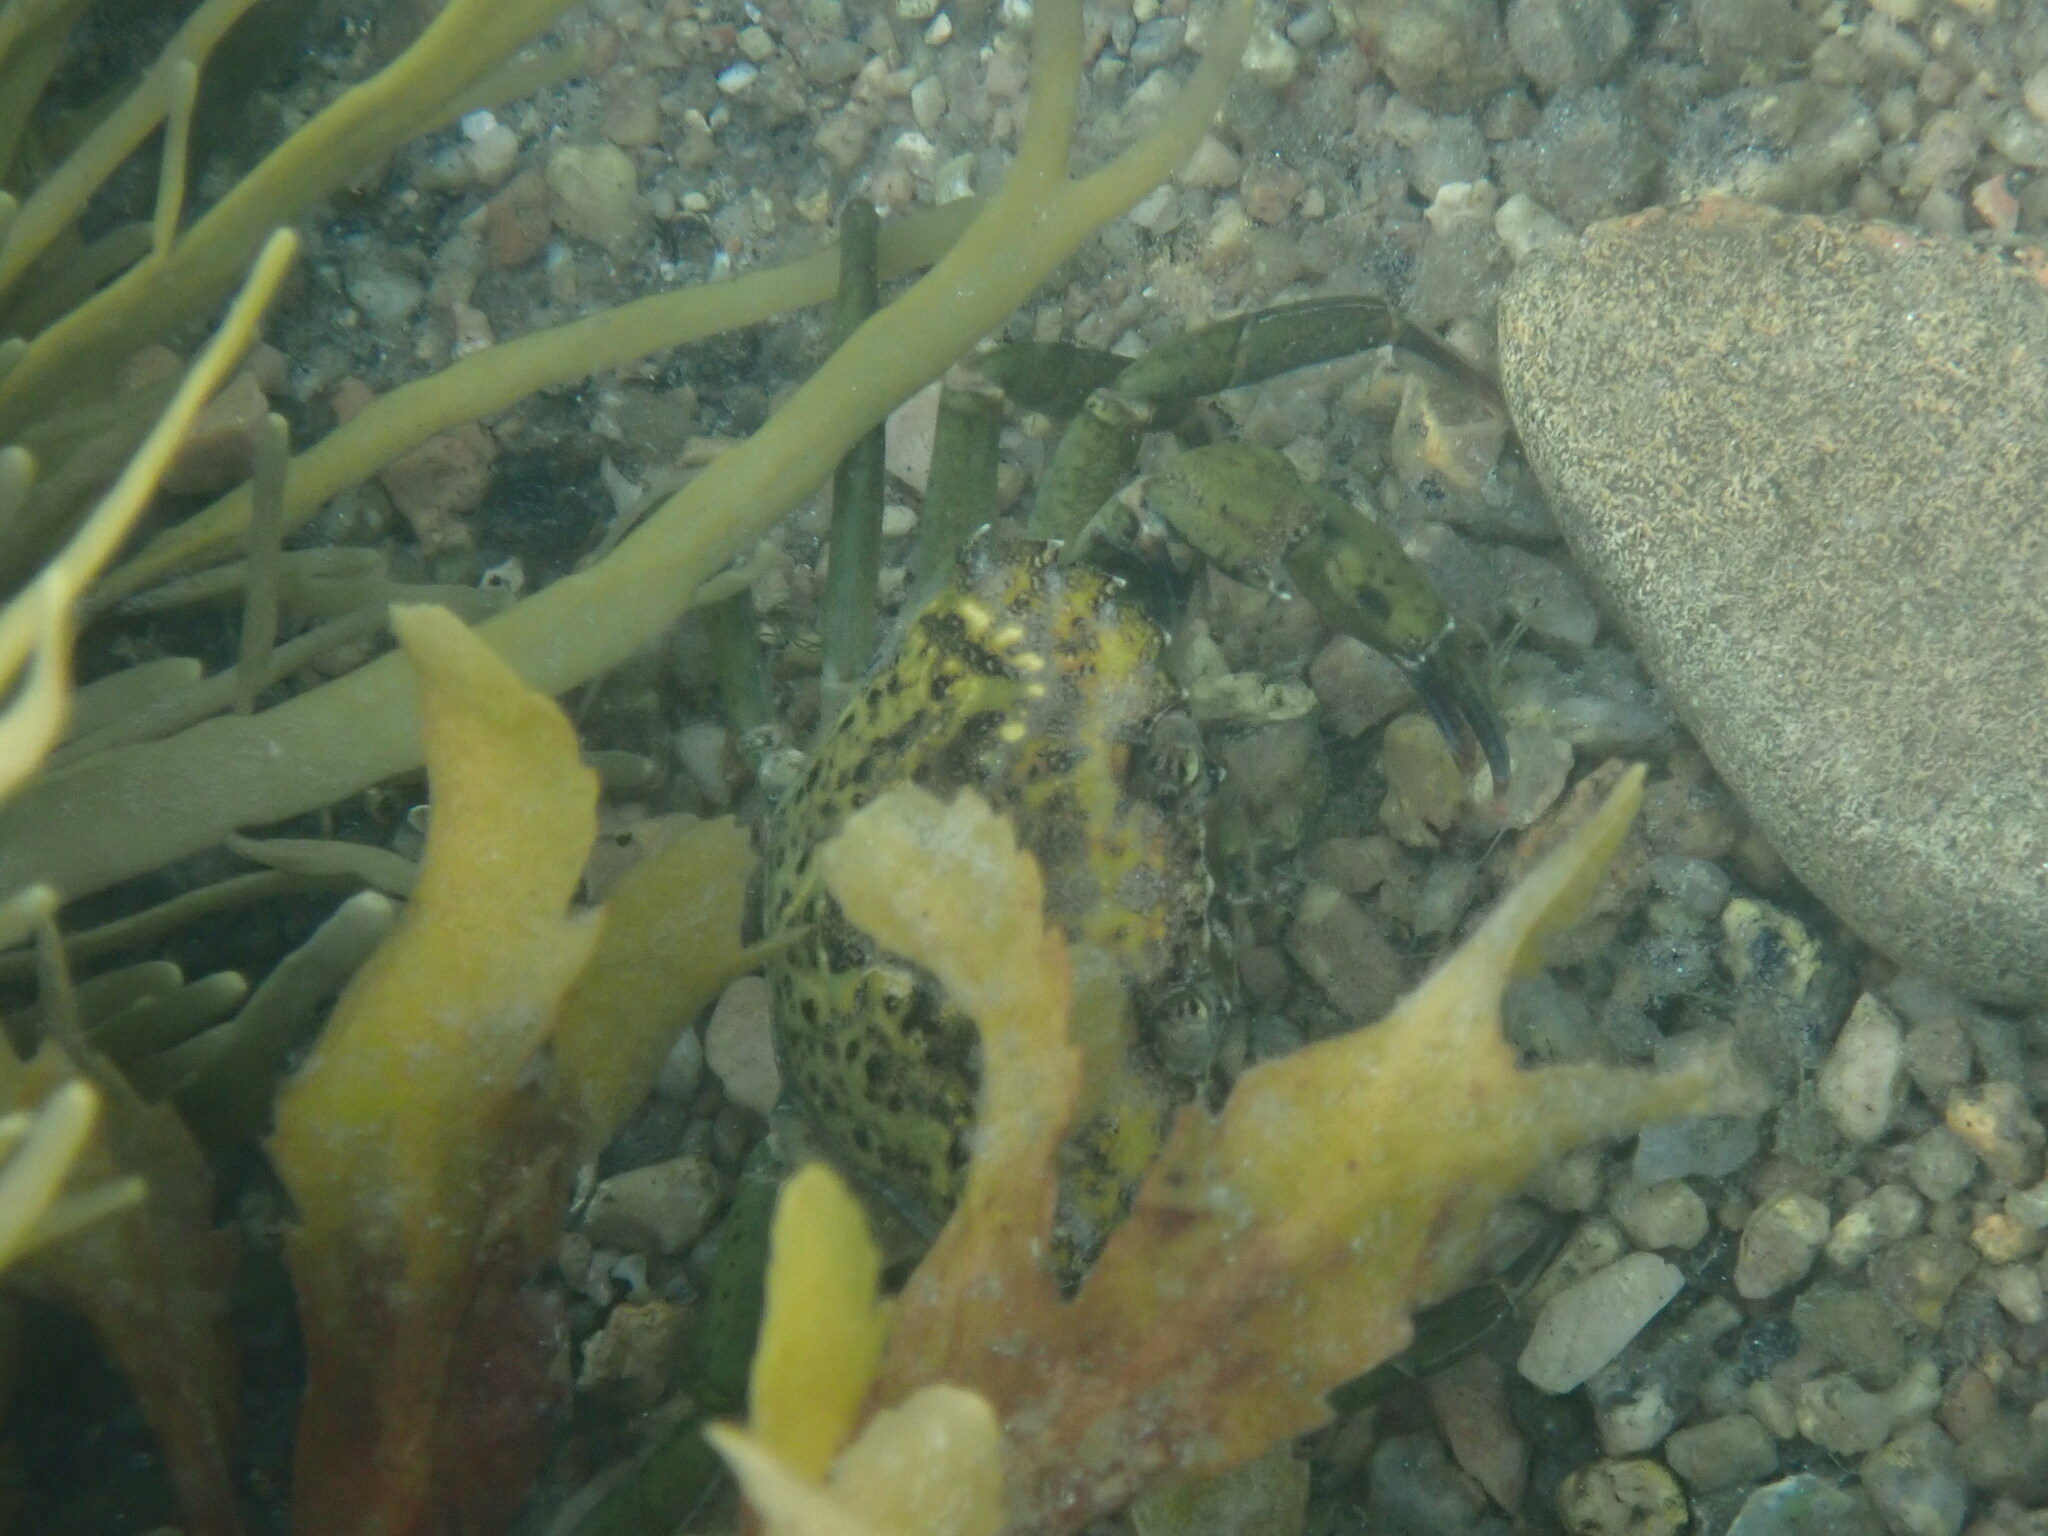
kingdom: Animalia
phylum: Arthropoda
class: Malacostraca
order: Decapoda
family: Carcinidae
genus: Carcinus
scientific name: Carcinus maenas
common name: European green crab
